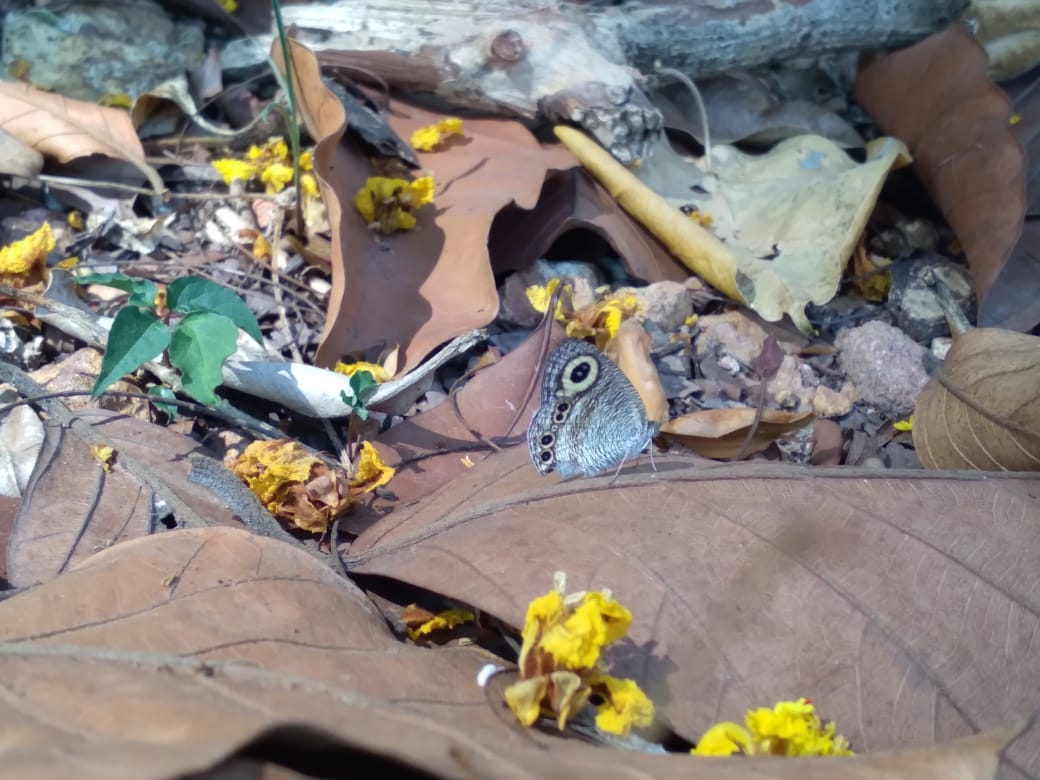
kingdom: Animalia
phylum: Arthropoda
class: Insecta
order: Lepidoptera
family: Nymphalidae
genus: Ypthima
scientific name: Ypthima ceylonica
